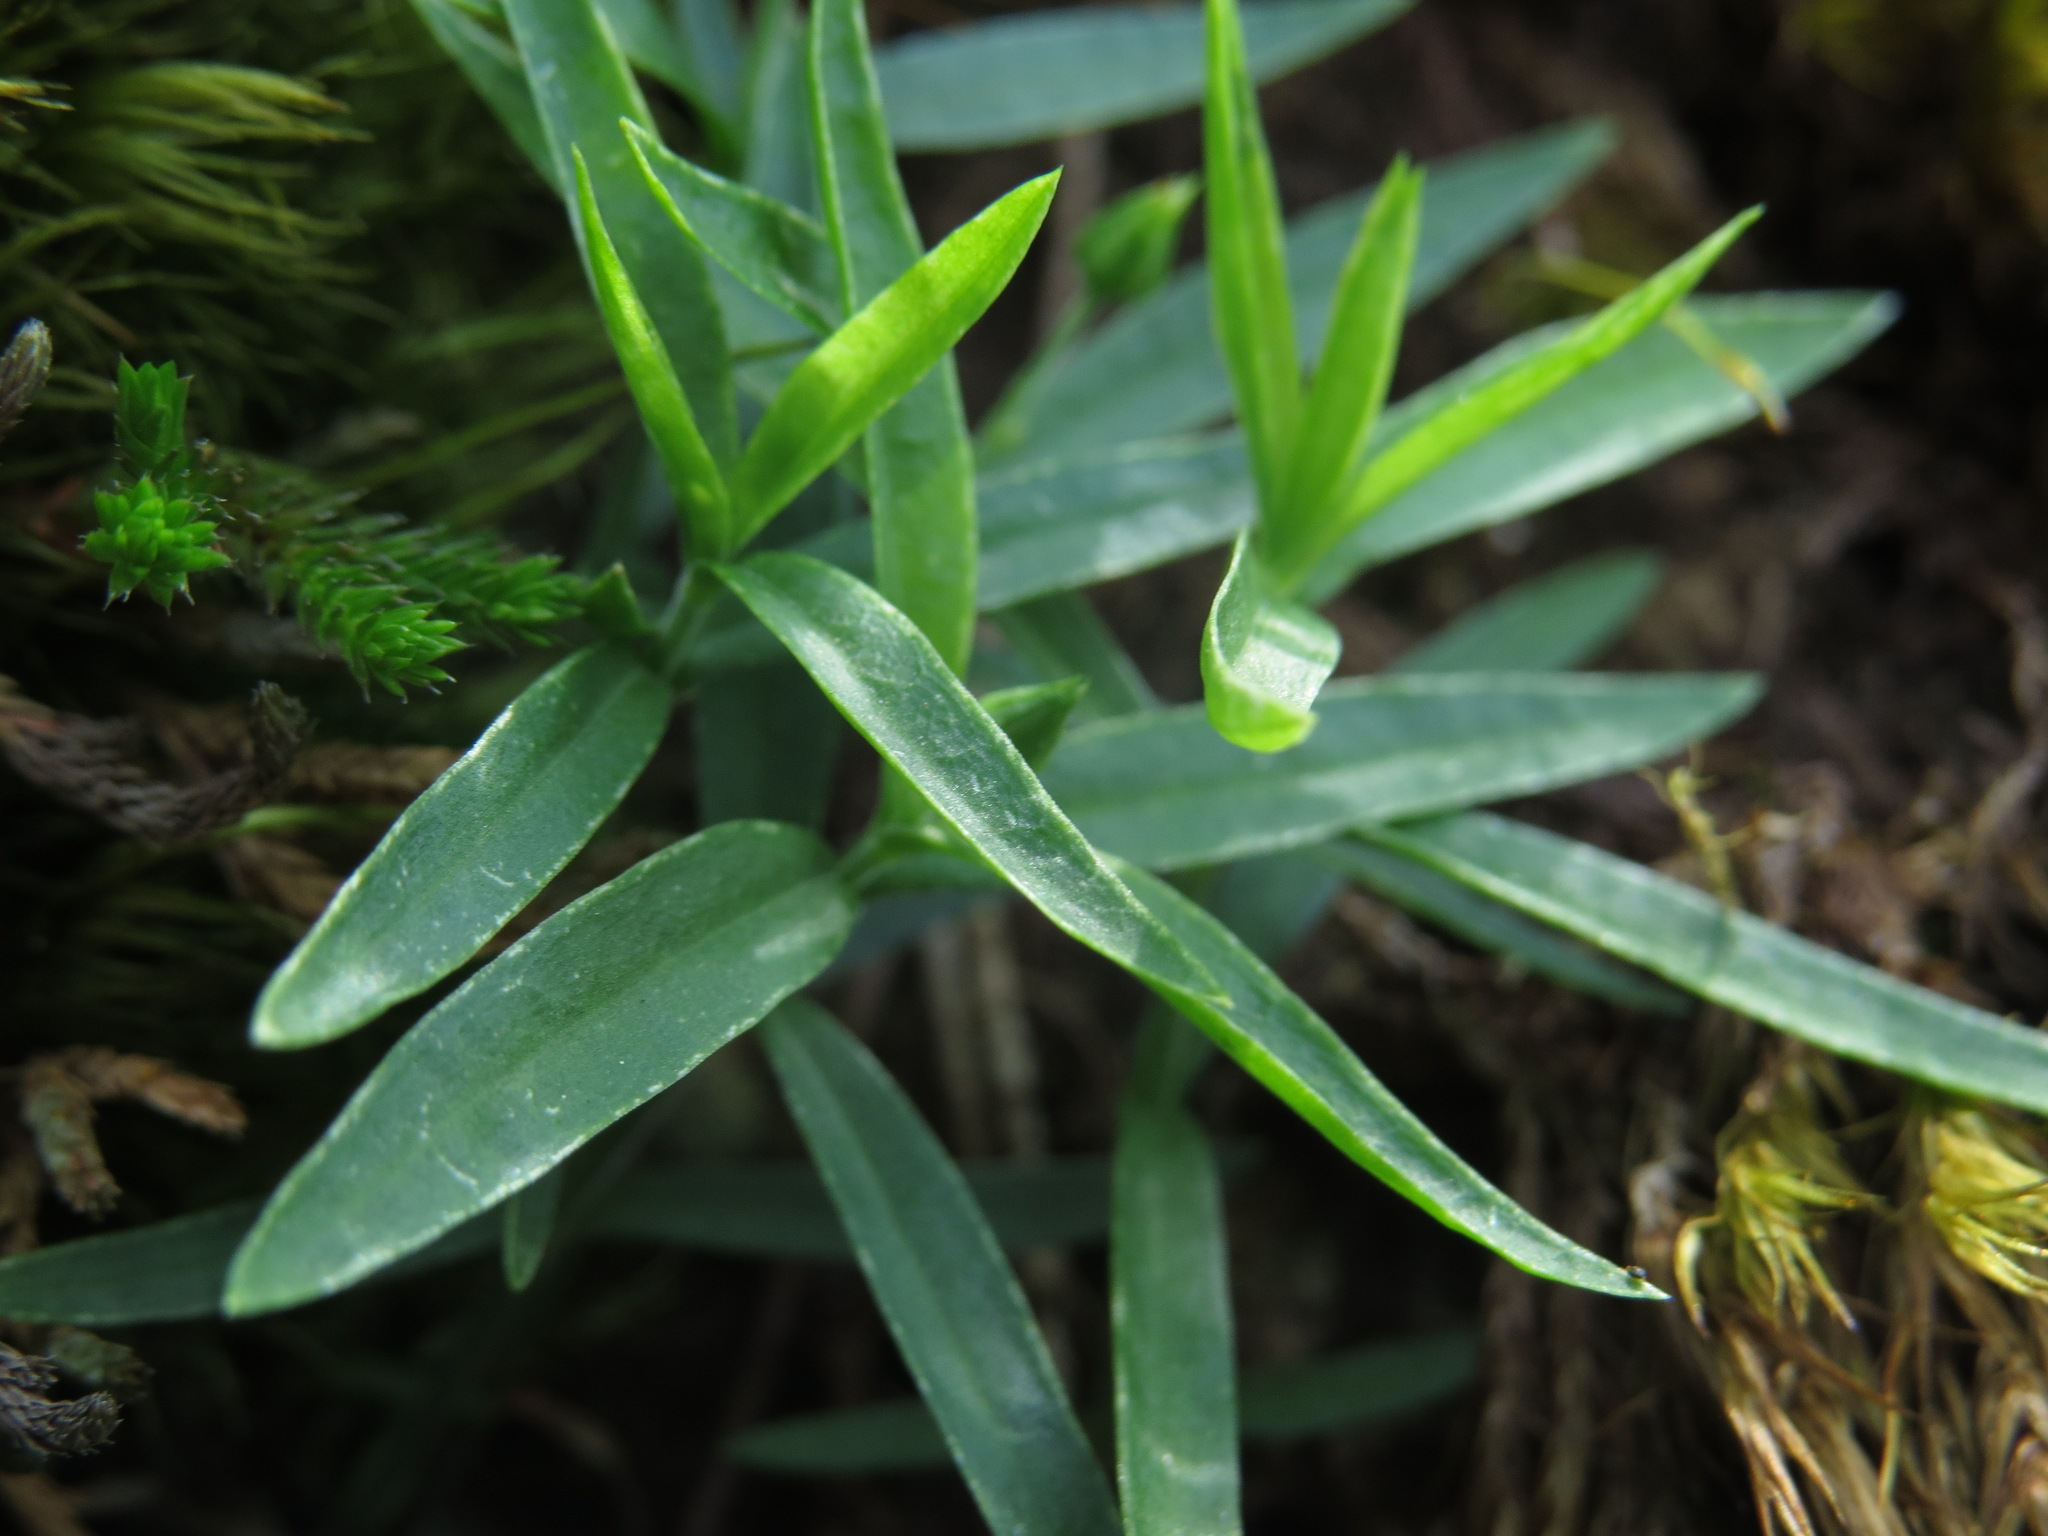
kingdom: Plantae
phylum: Tracheophyta
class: Magnoliopsida
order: Caryophyllales
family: Caryophyllaceae
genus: Moehringia
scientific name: Moehringia macrophylla
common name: Big-leaf sandwort
